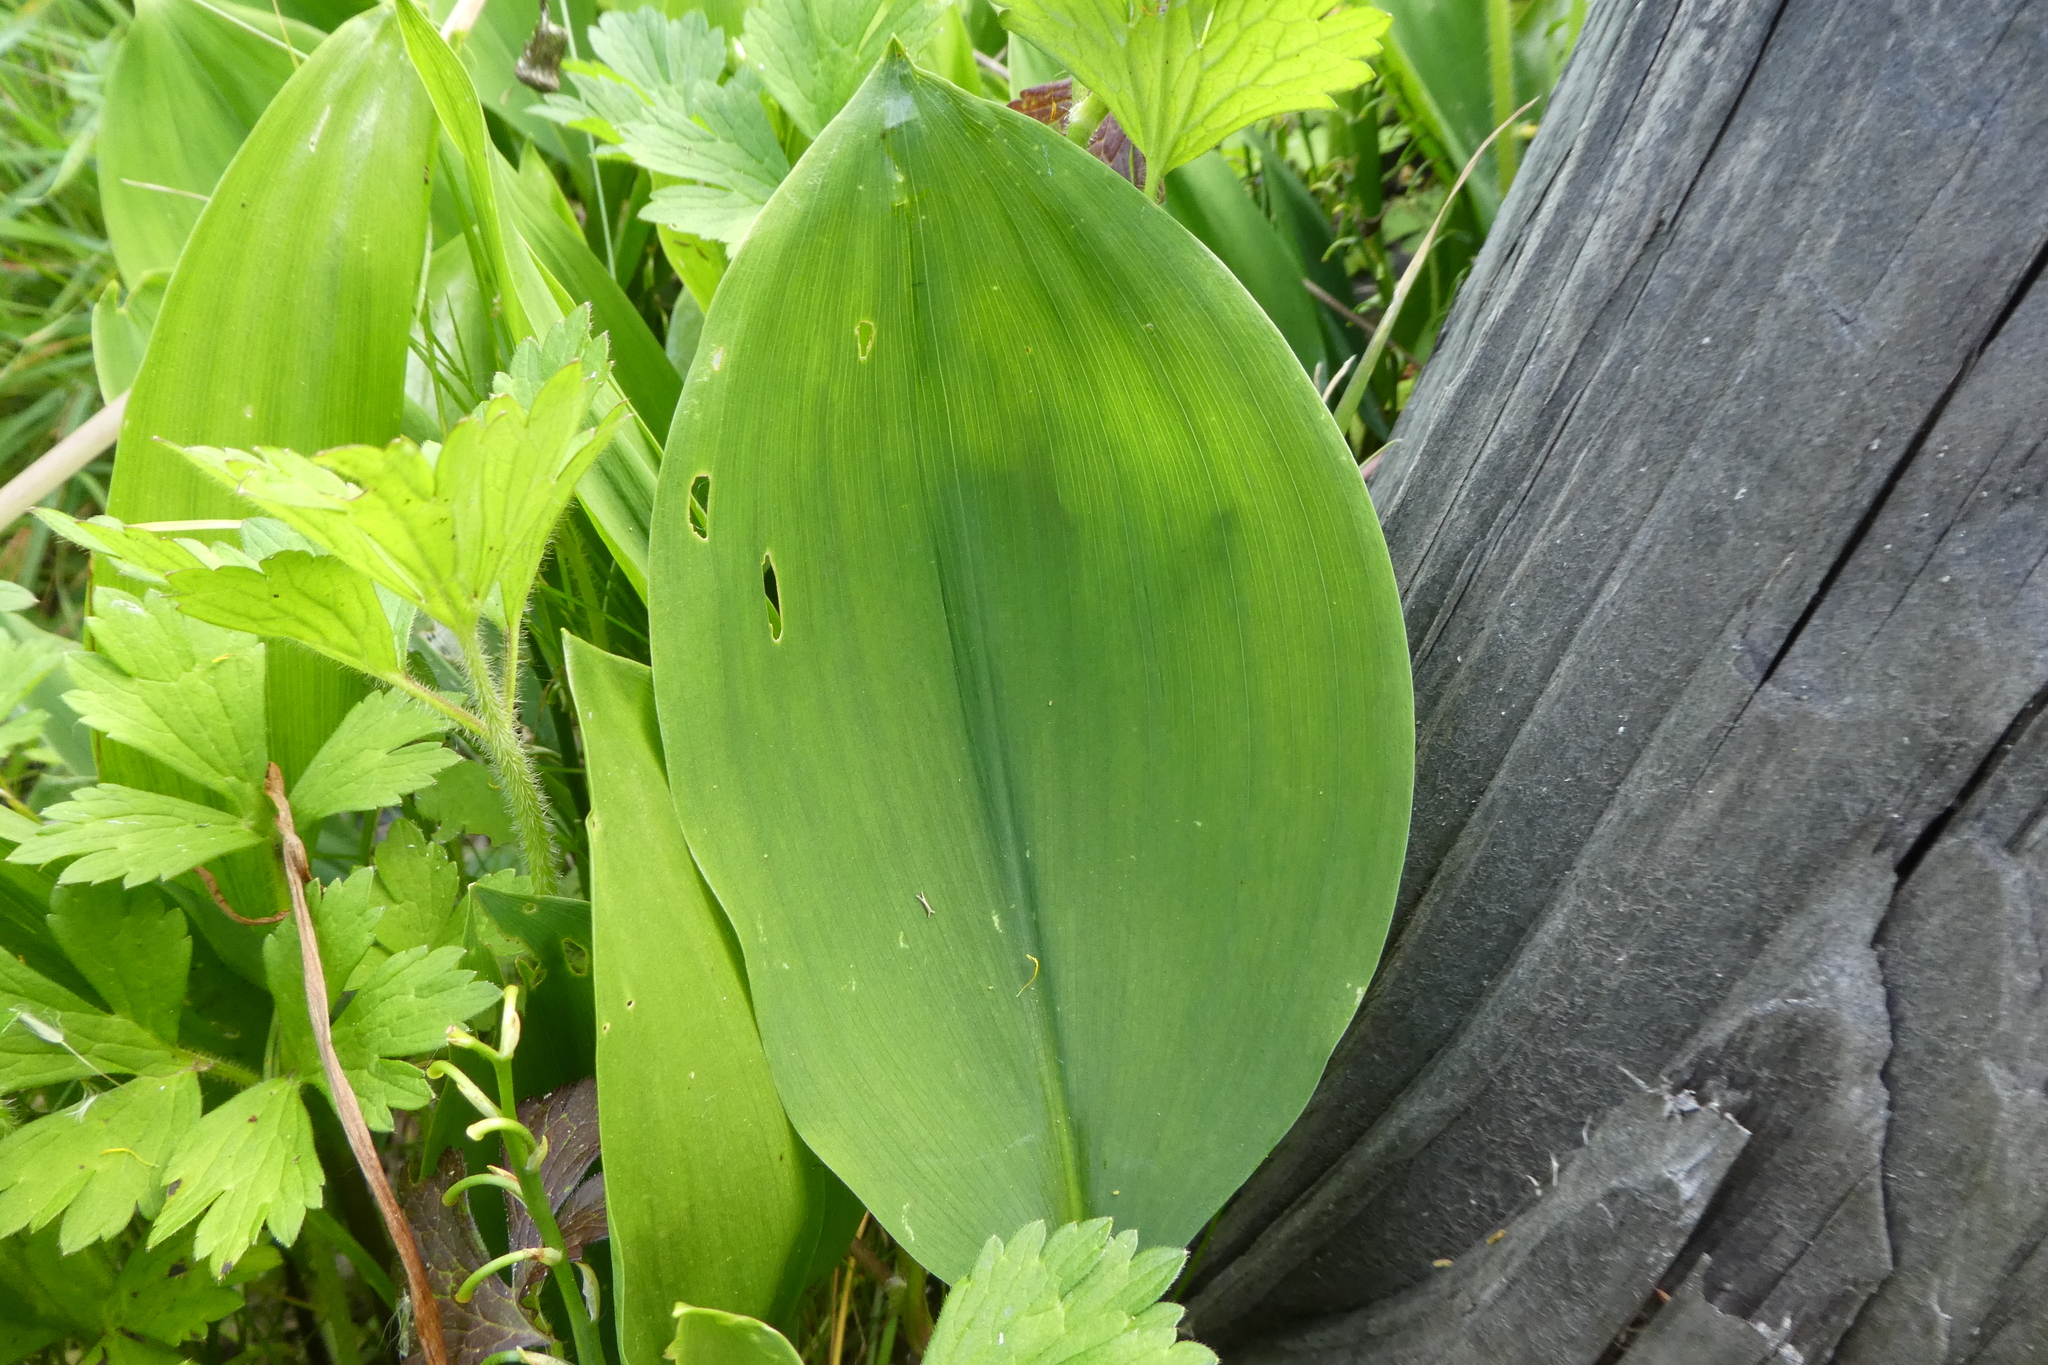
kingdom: Plantae
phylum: Tracheophyta
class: Liliopsida
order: Asparagales
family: Asparagaceae
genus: Convallaria
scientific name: Convallaria majalis
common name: Lily-of-the-valley
